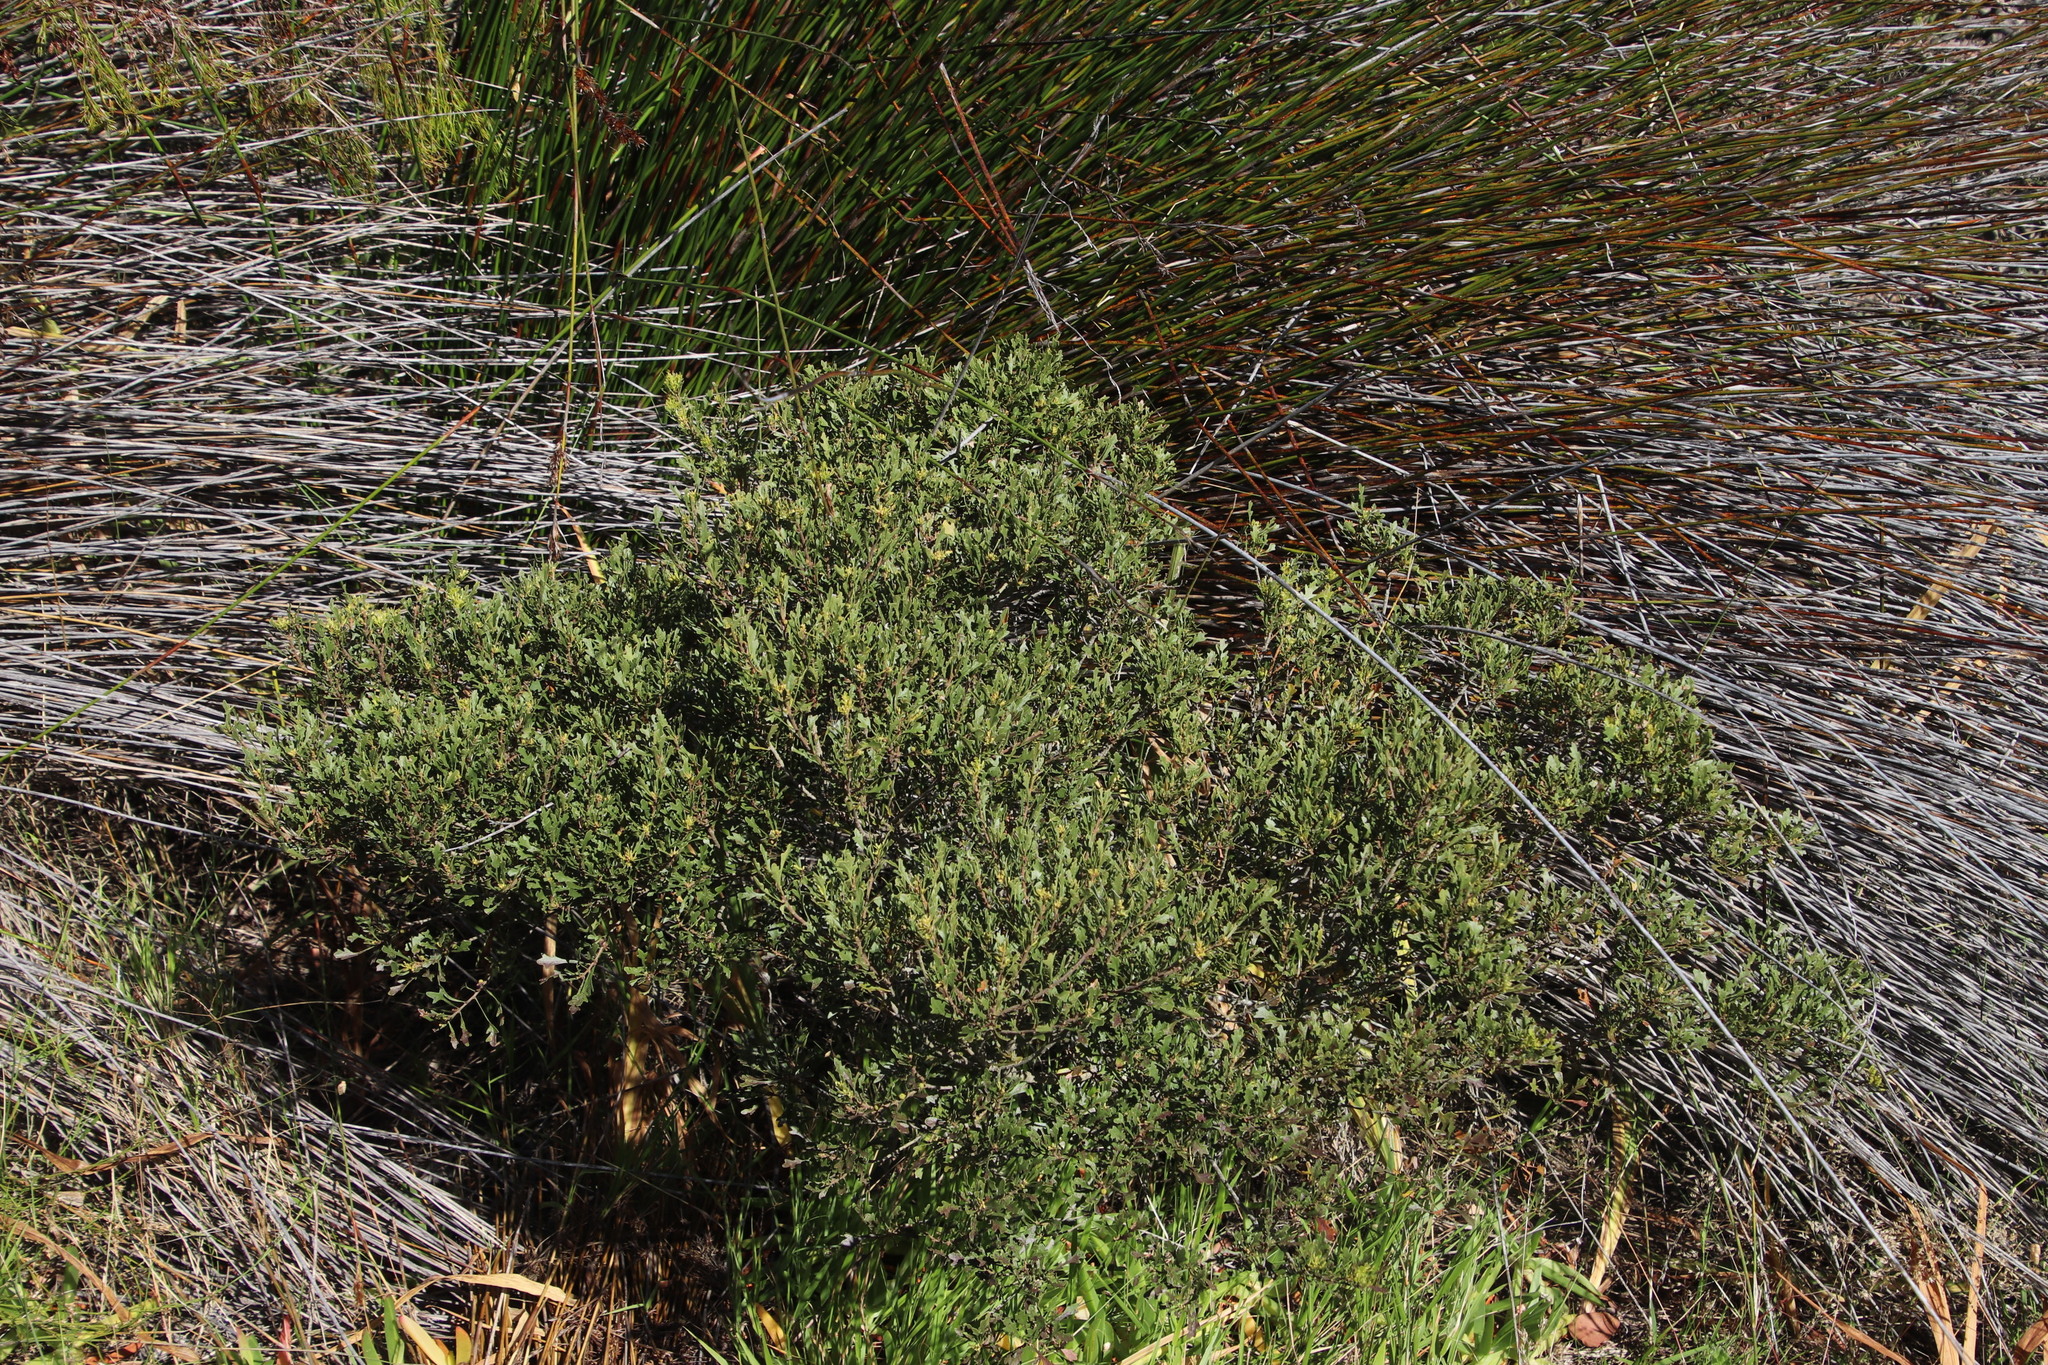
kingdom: Plantae
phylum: Tracheophyta
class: Magnoliopsida
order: Fagales
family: Myricaceae
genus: Morella
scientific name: Morella quercifolia
